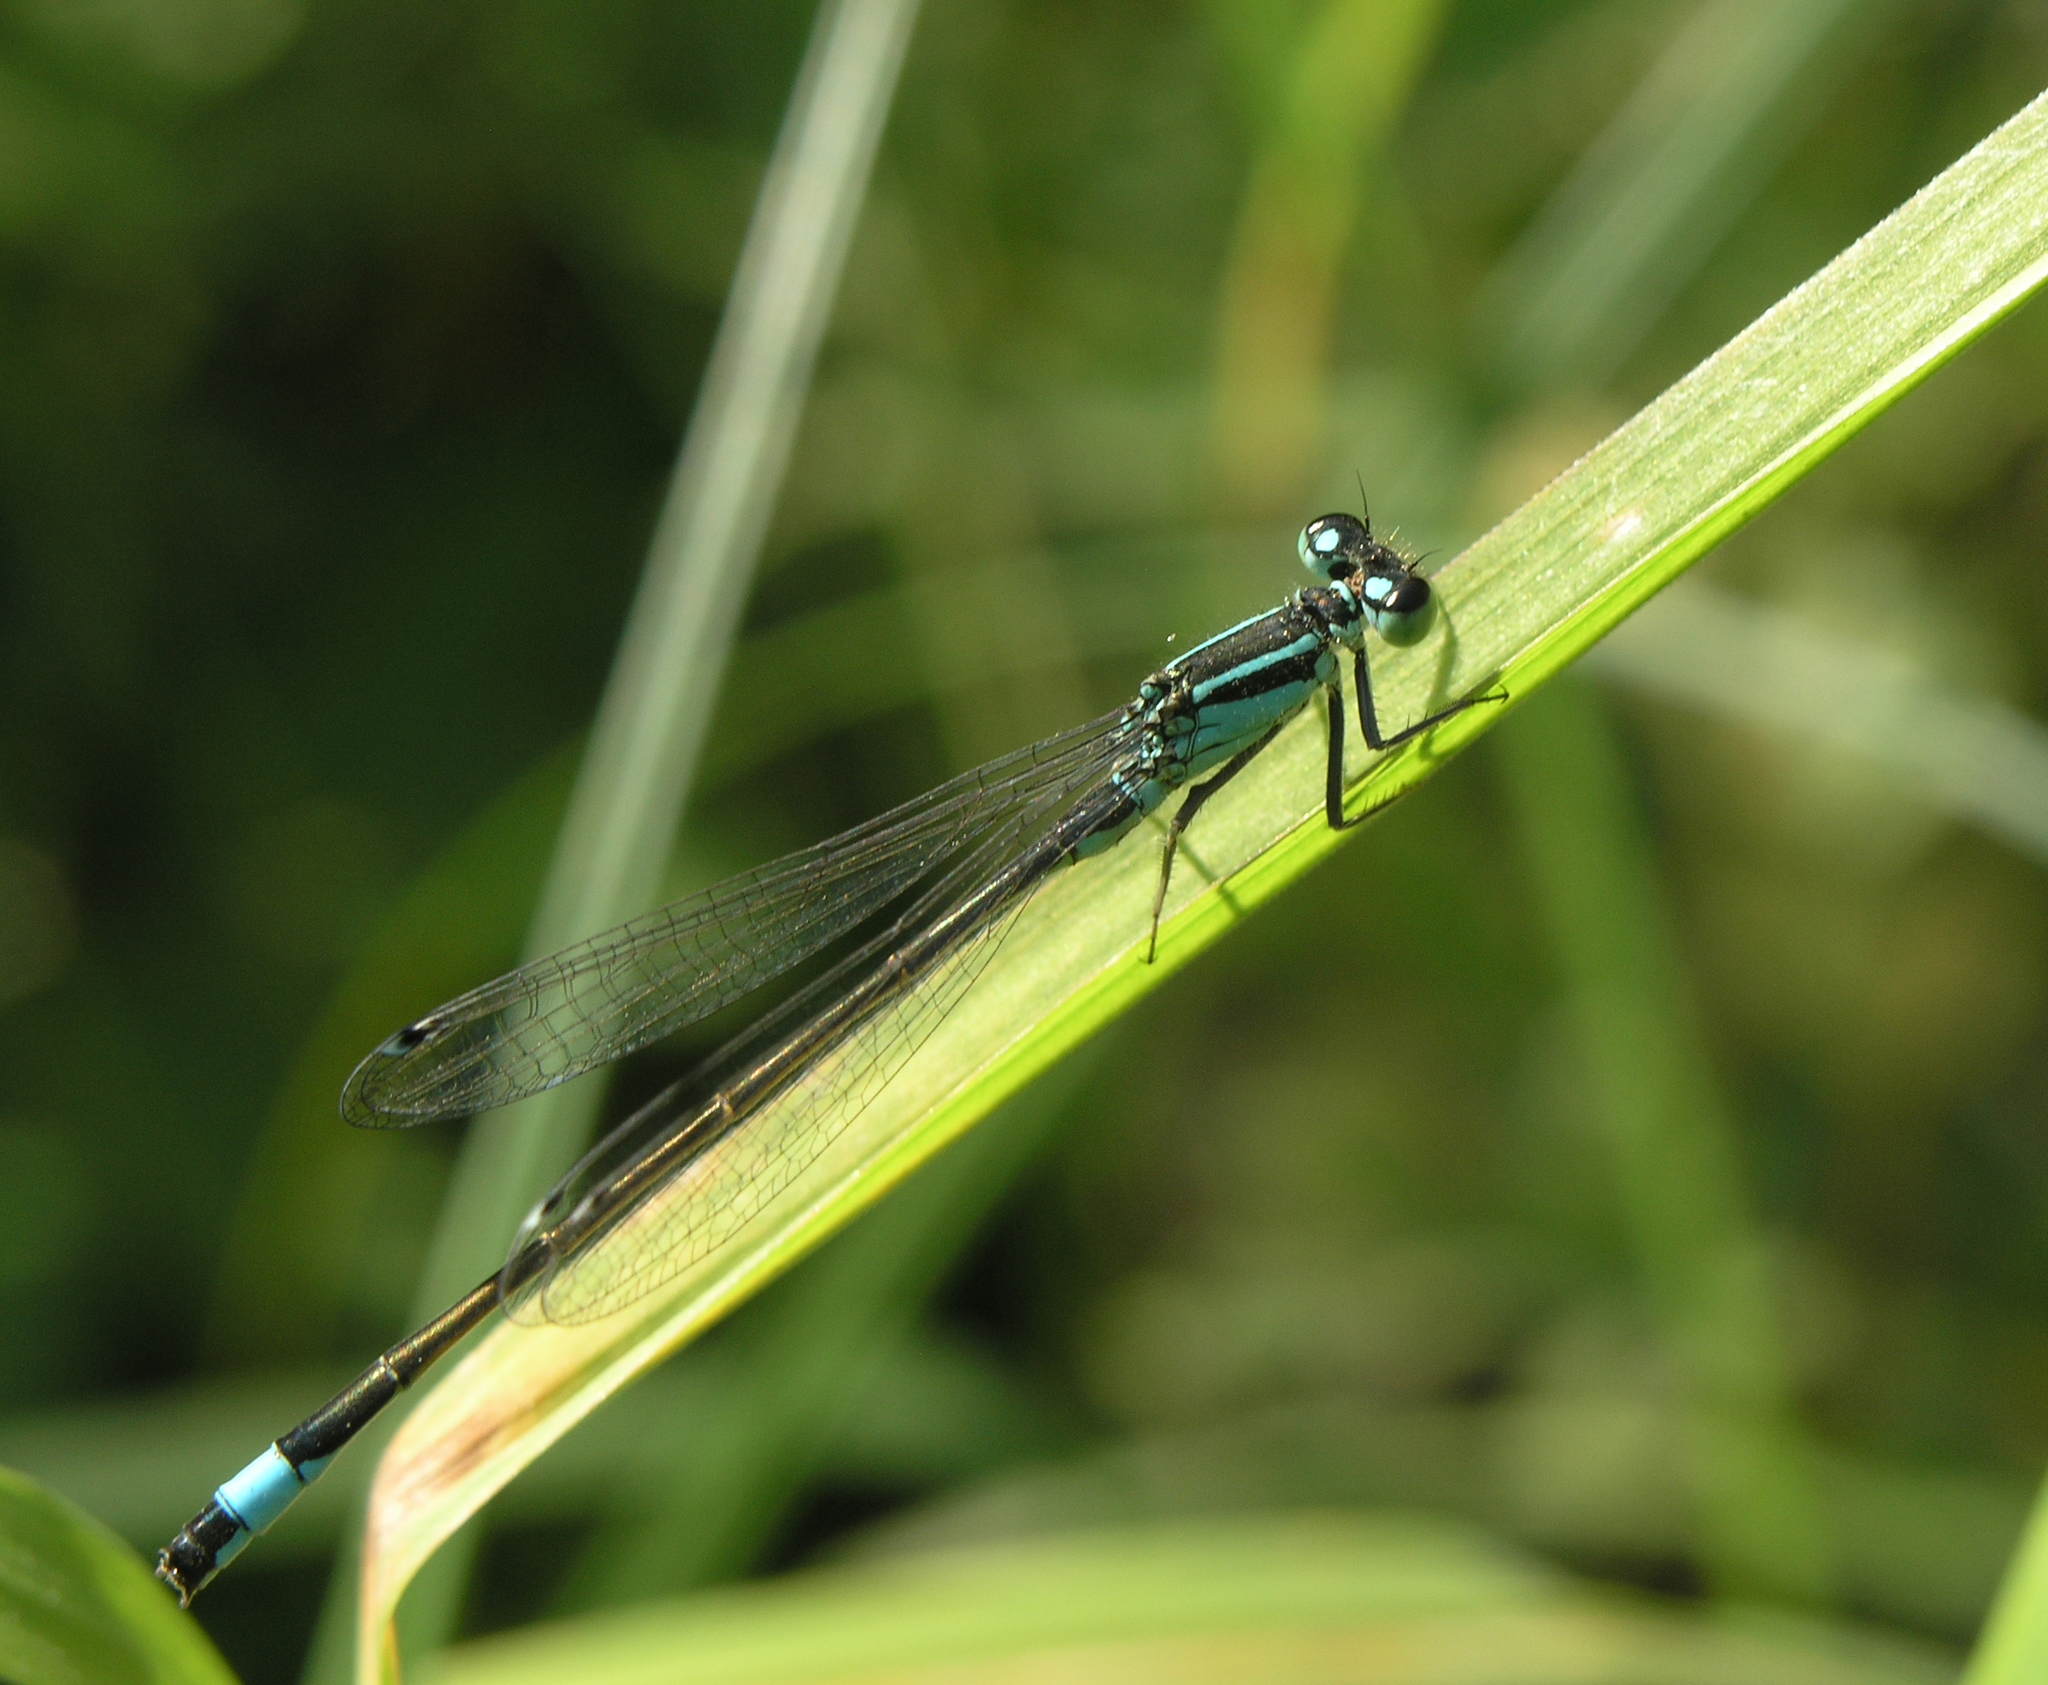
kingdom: Animalia
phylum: Arthropoda
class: Insecta
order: Odonata
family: Coenagrionidae
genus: Ischnura
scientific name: Ischnura elegans
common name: Blue-tailed damselfly
